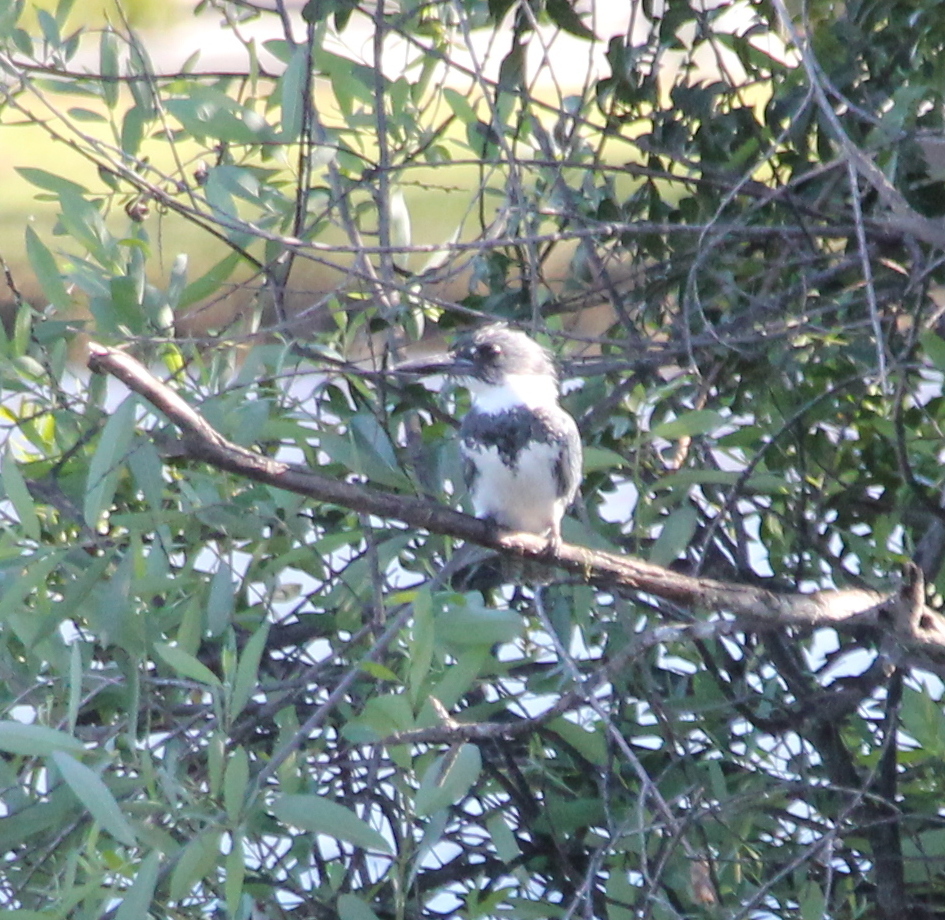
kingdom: Animalia
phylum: Chordata
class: Aves
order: Coraciiformes
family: Alcedinidae
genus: Megaceryle
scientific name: Megaceryle alcyon
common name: Belted kingfisher
